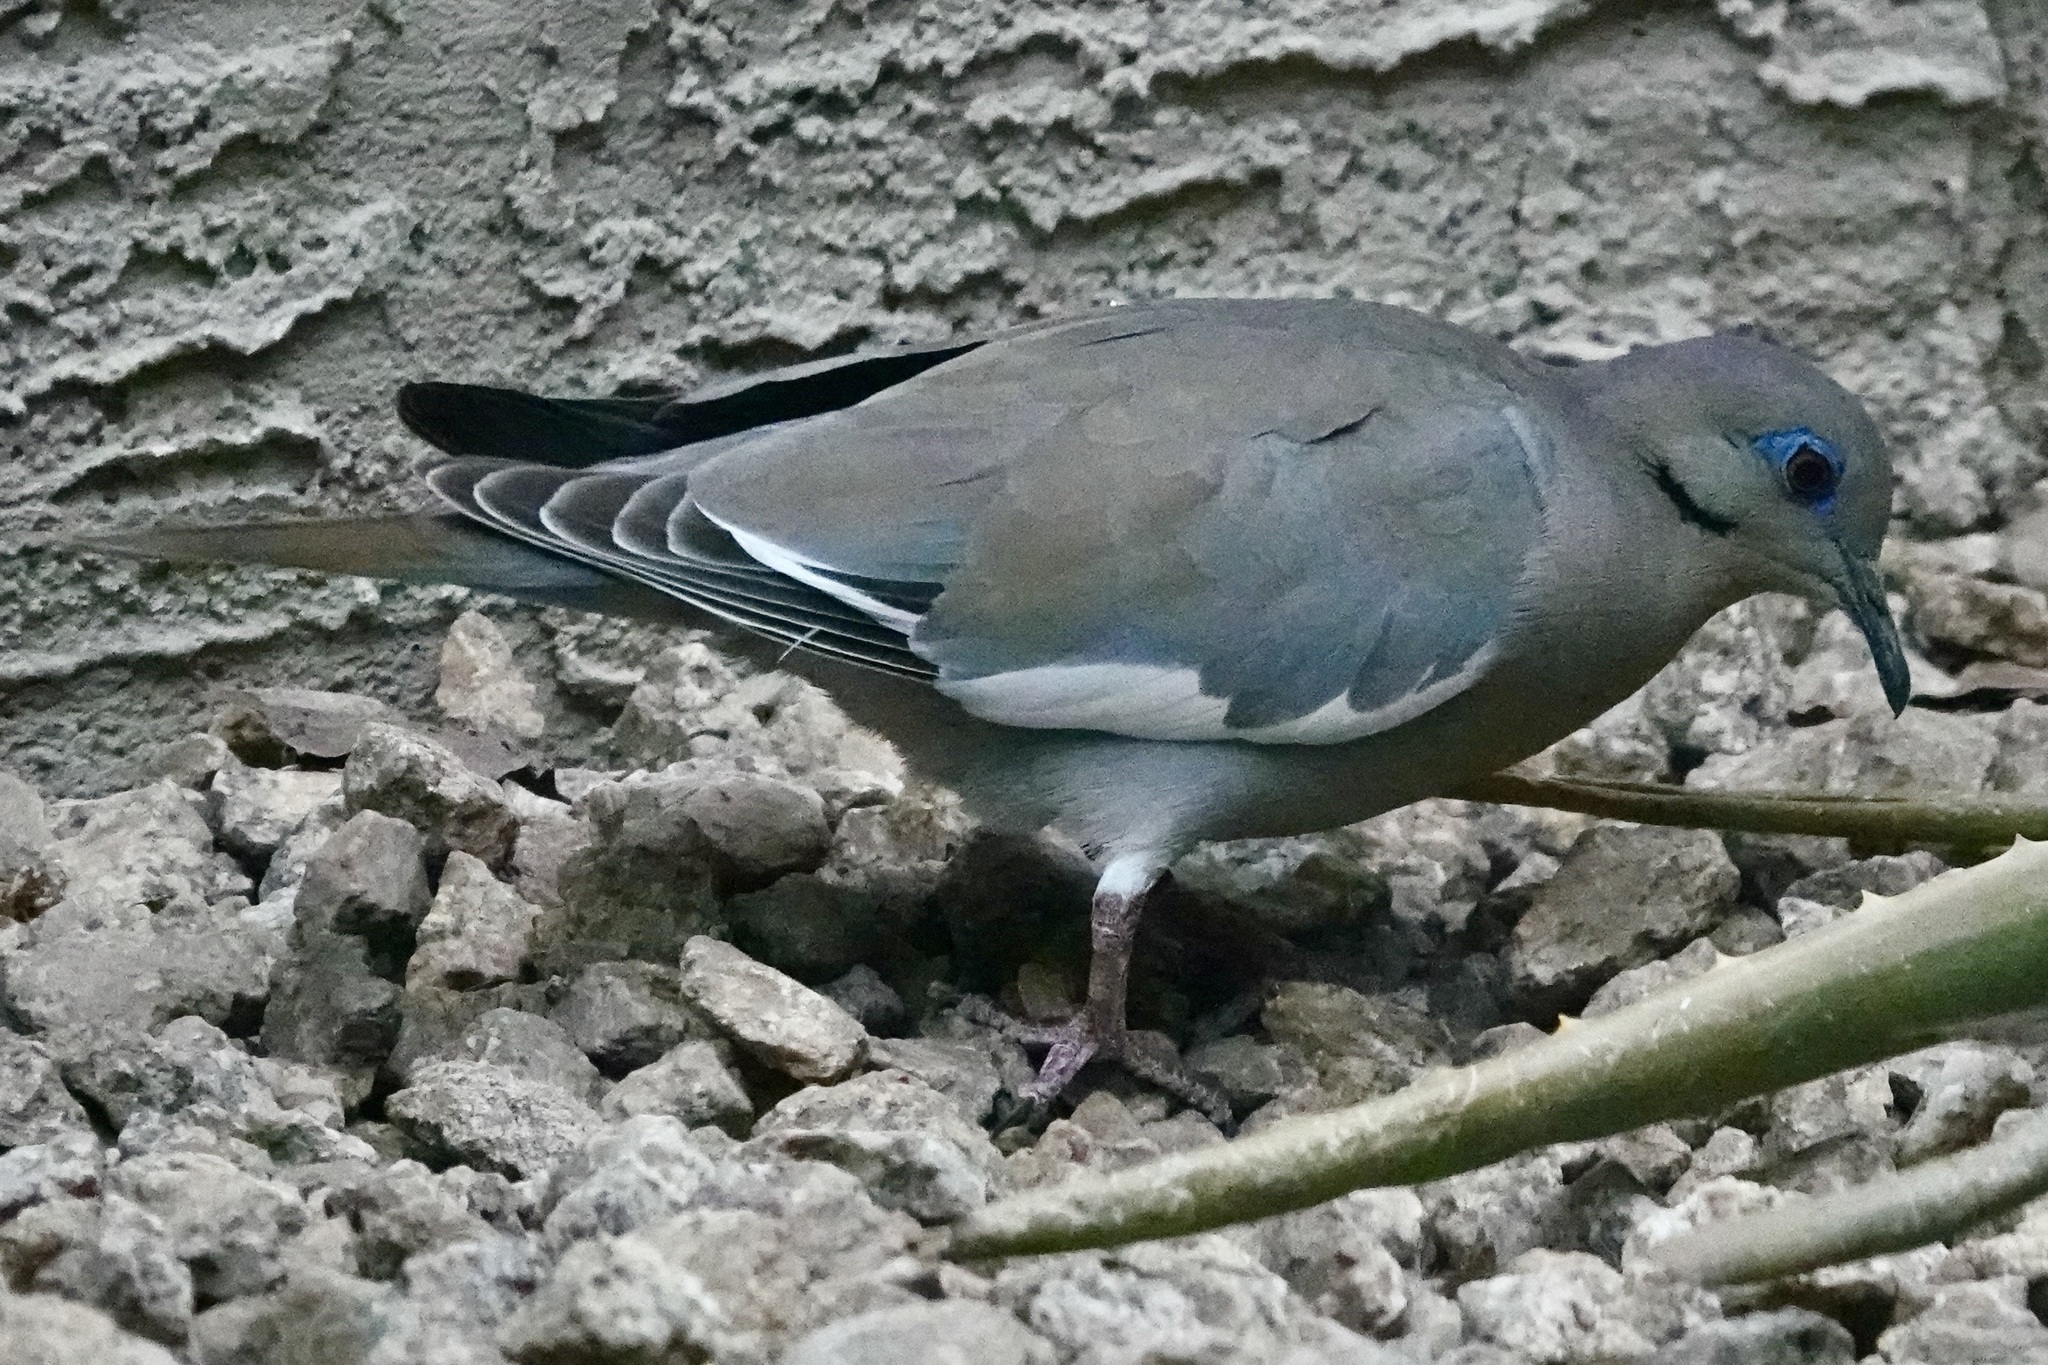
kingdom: Animalia
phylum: Chordata
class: Aves
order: Columbiformes
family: Columbidae
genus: Zenaida
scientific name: Zenaida asiatica
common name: White-winged dove
